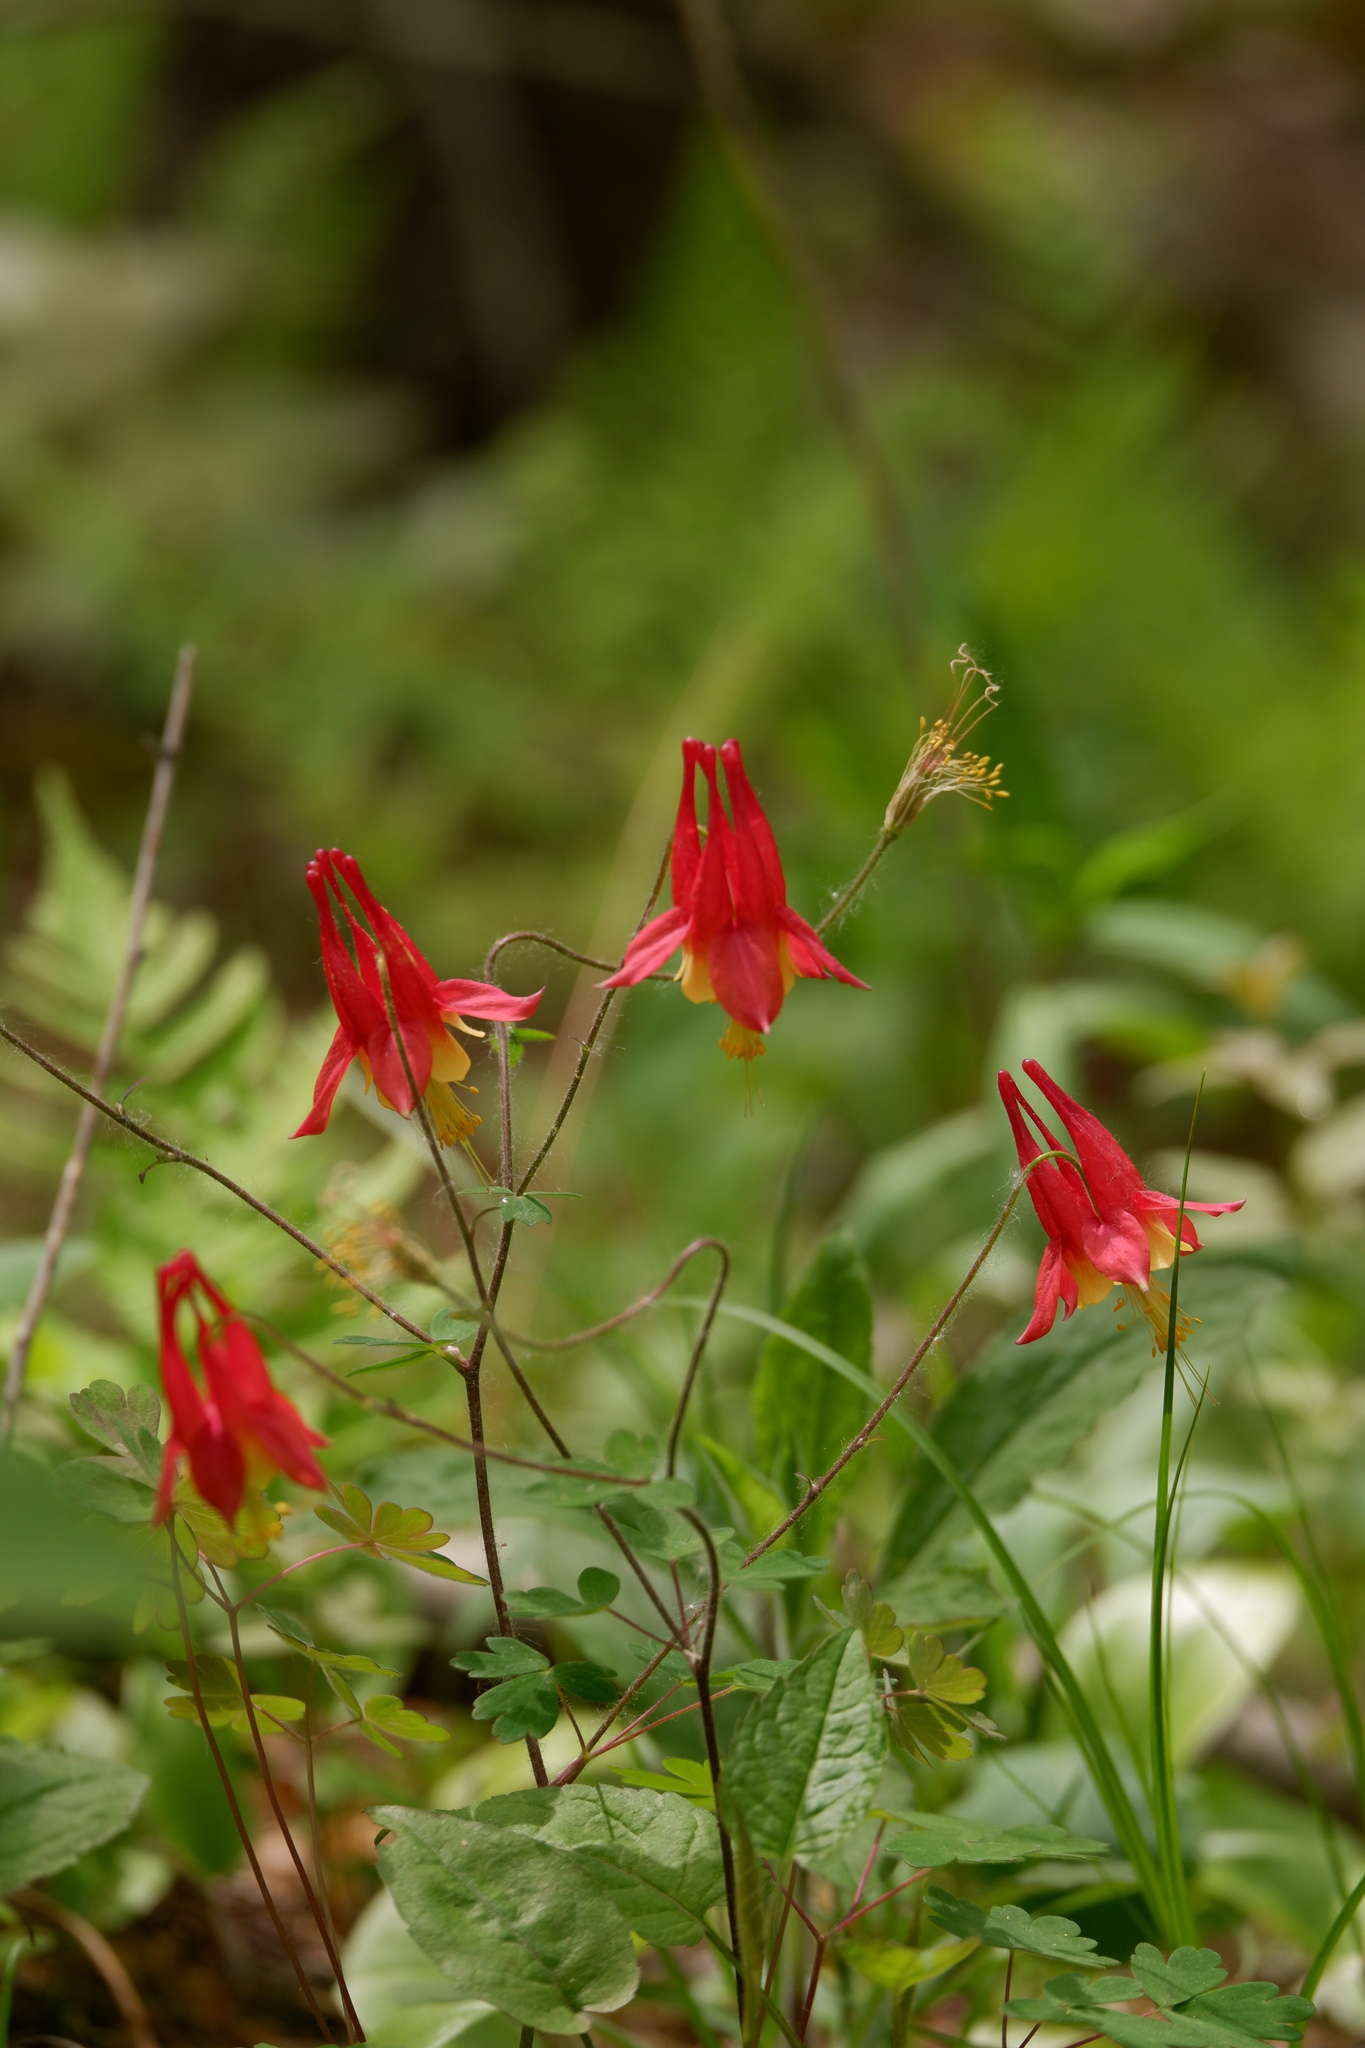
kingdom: Plantae
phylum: Tracheophyta
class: Magnoliopsida
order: Ranunculales
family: Ranunculaceae
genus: Aquilegia
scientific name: Aquilegia canadensis
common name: American columbine
